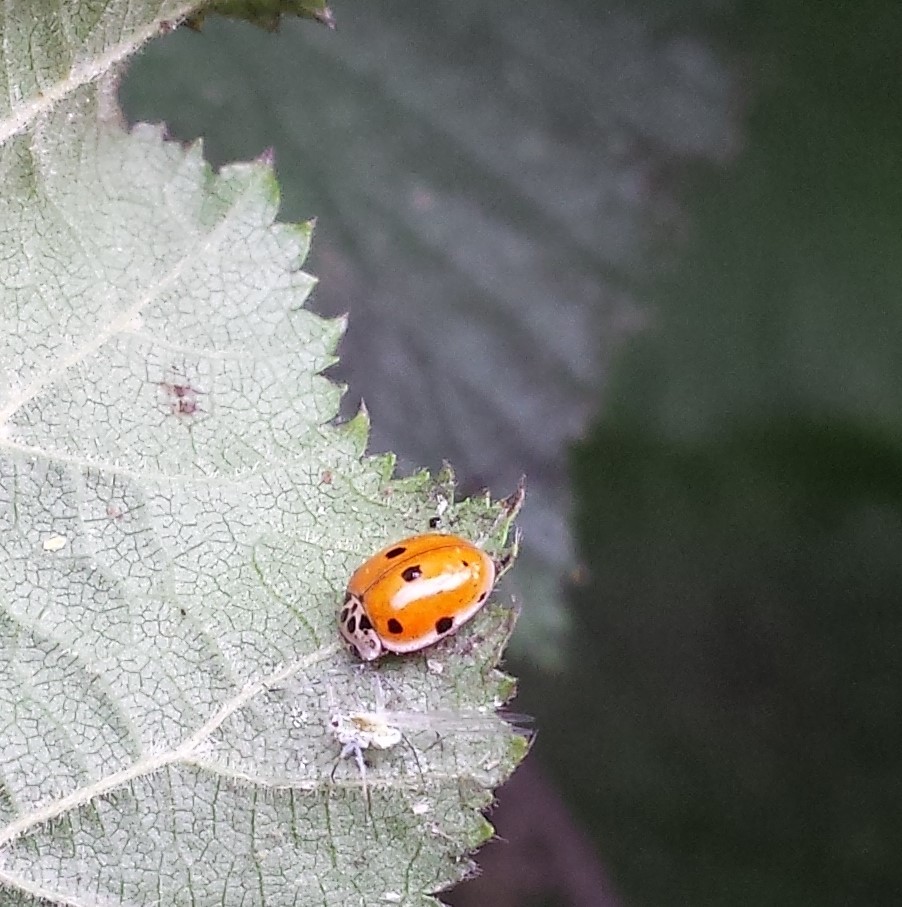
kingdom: Animalia
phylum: Arthropoda
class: Insecta
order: Coleoptera
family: Coccinellidae
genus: Adalia
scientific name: Adalia decempunctata
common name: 10-spot ladybird
